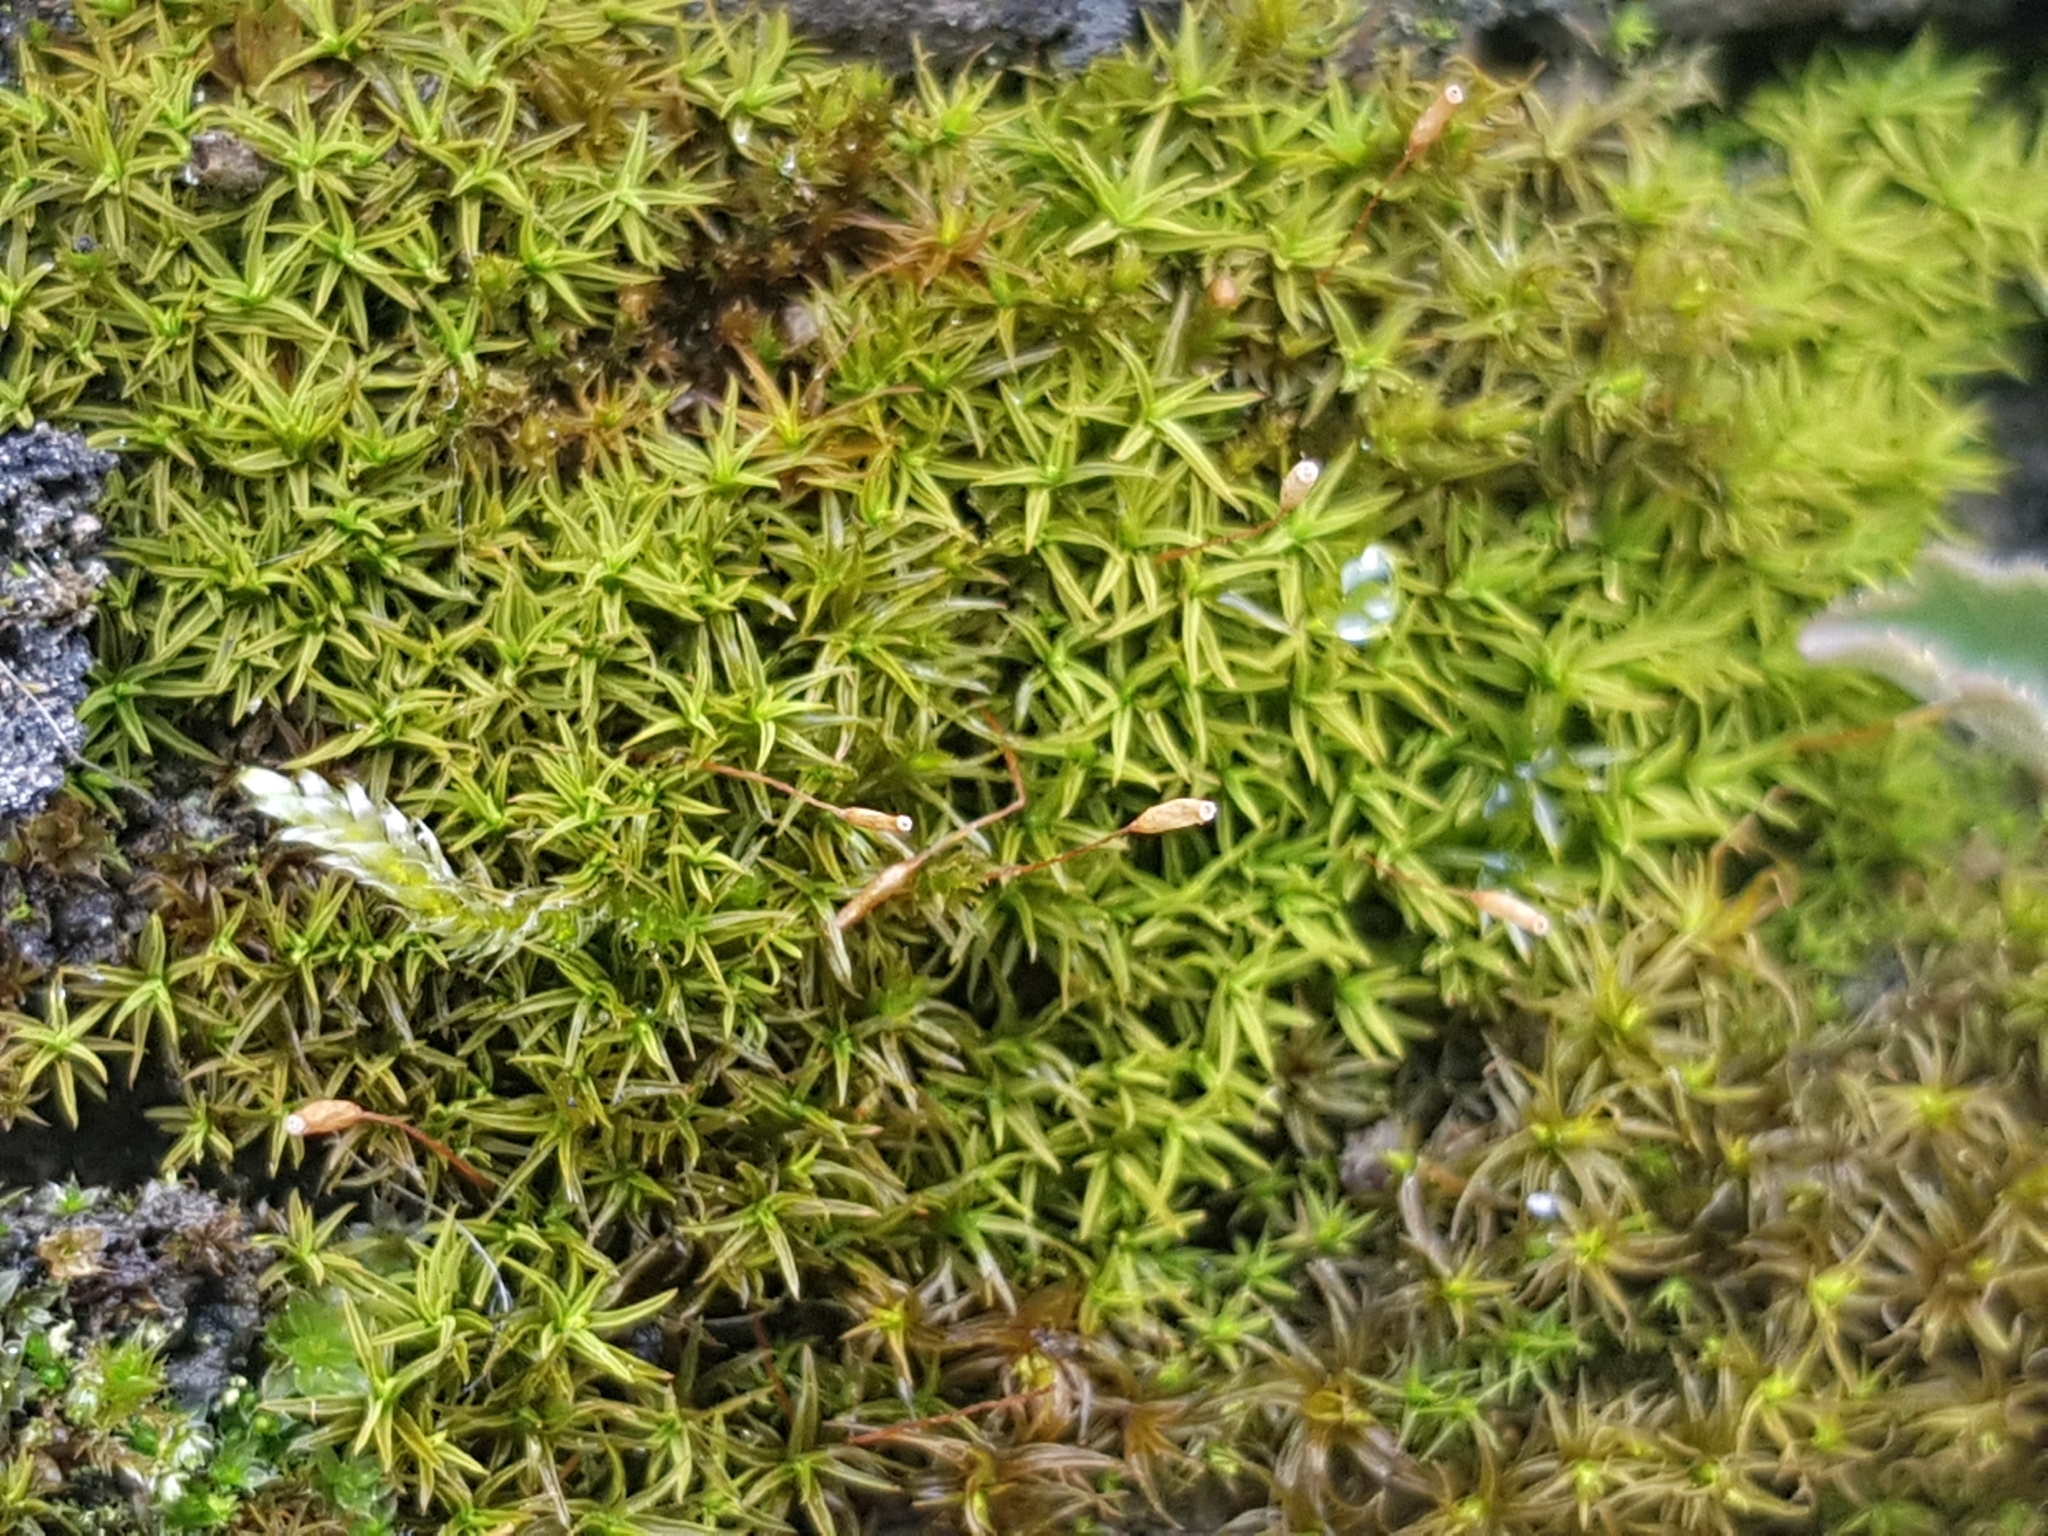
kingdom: Plantae
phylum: Bryophyta
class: Bryopsida
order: Pottiales
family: Pottiaceae
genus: Bryoerythrophyllum
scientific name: Bryoerythrophyllum recurvirostrum
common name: Red beard moss
